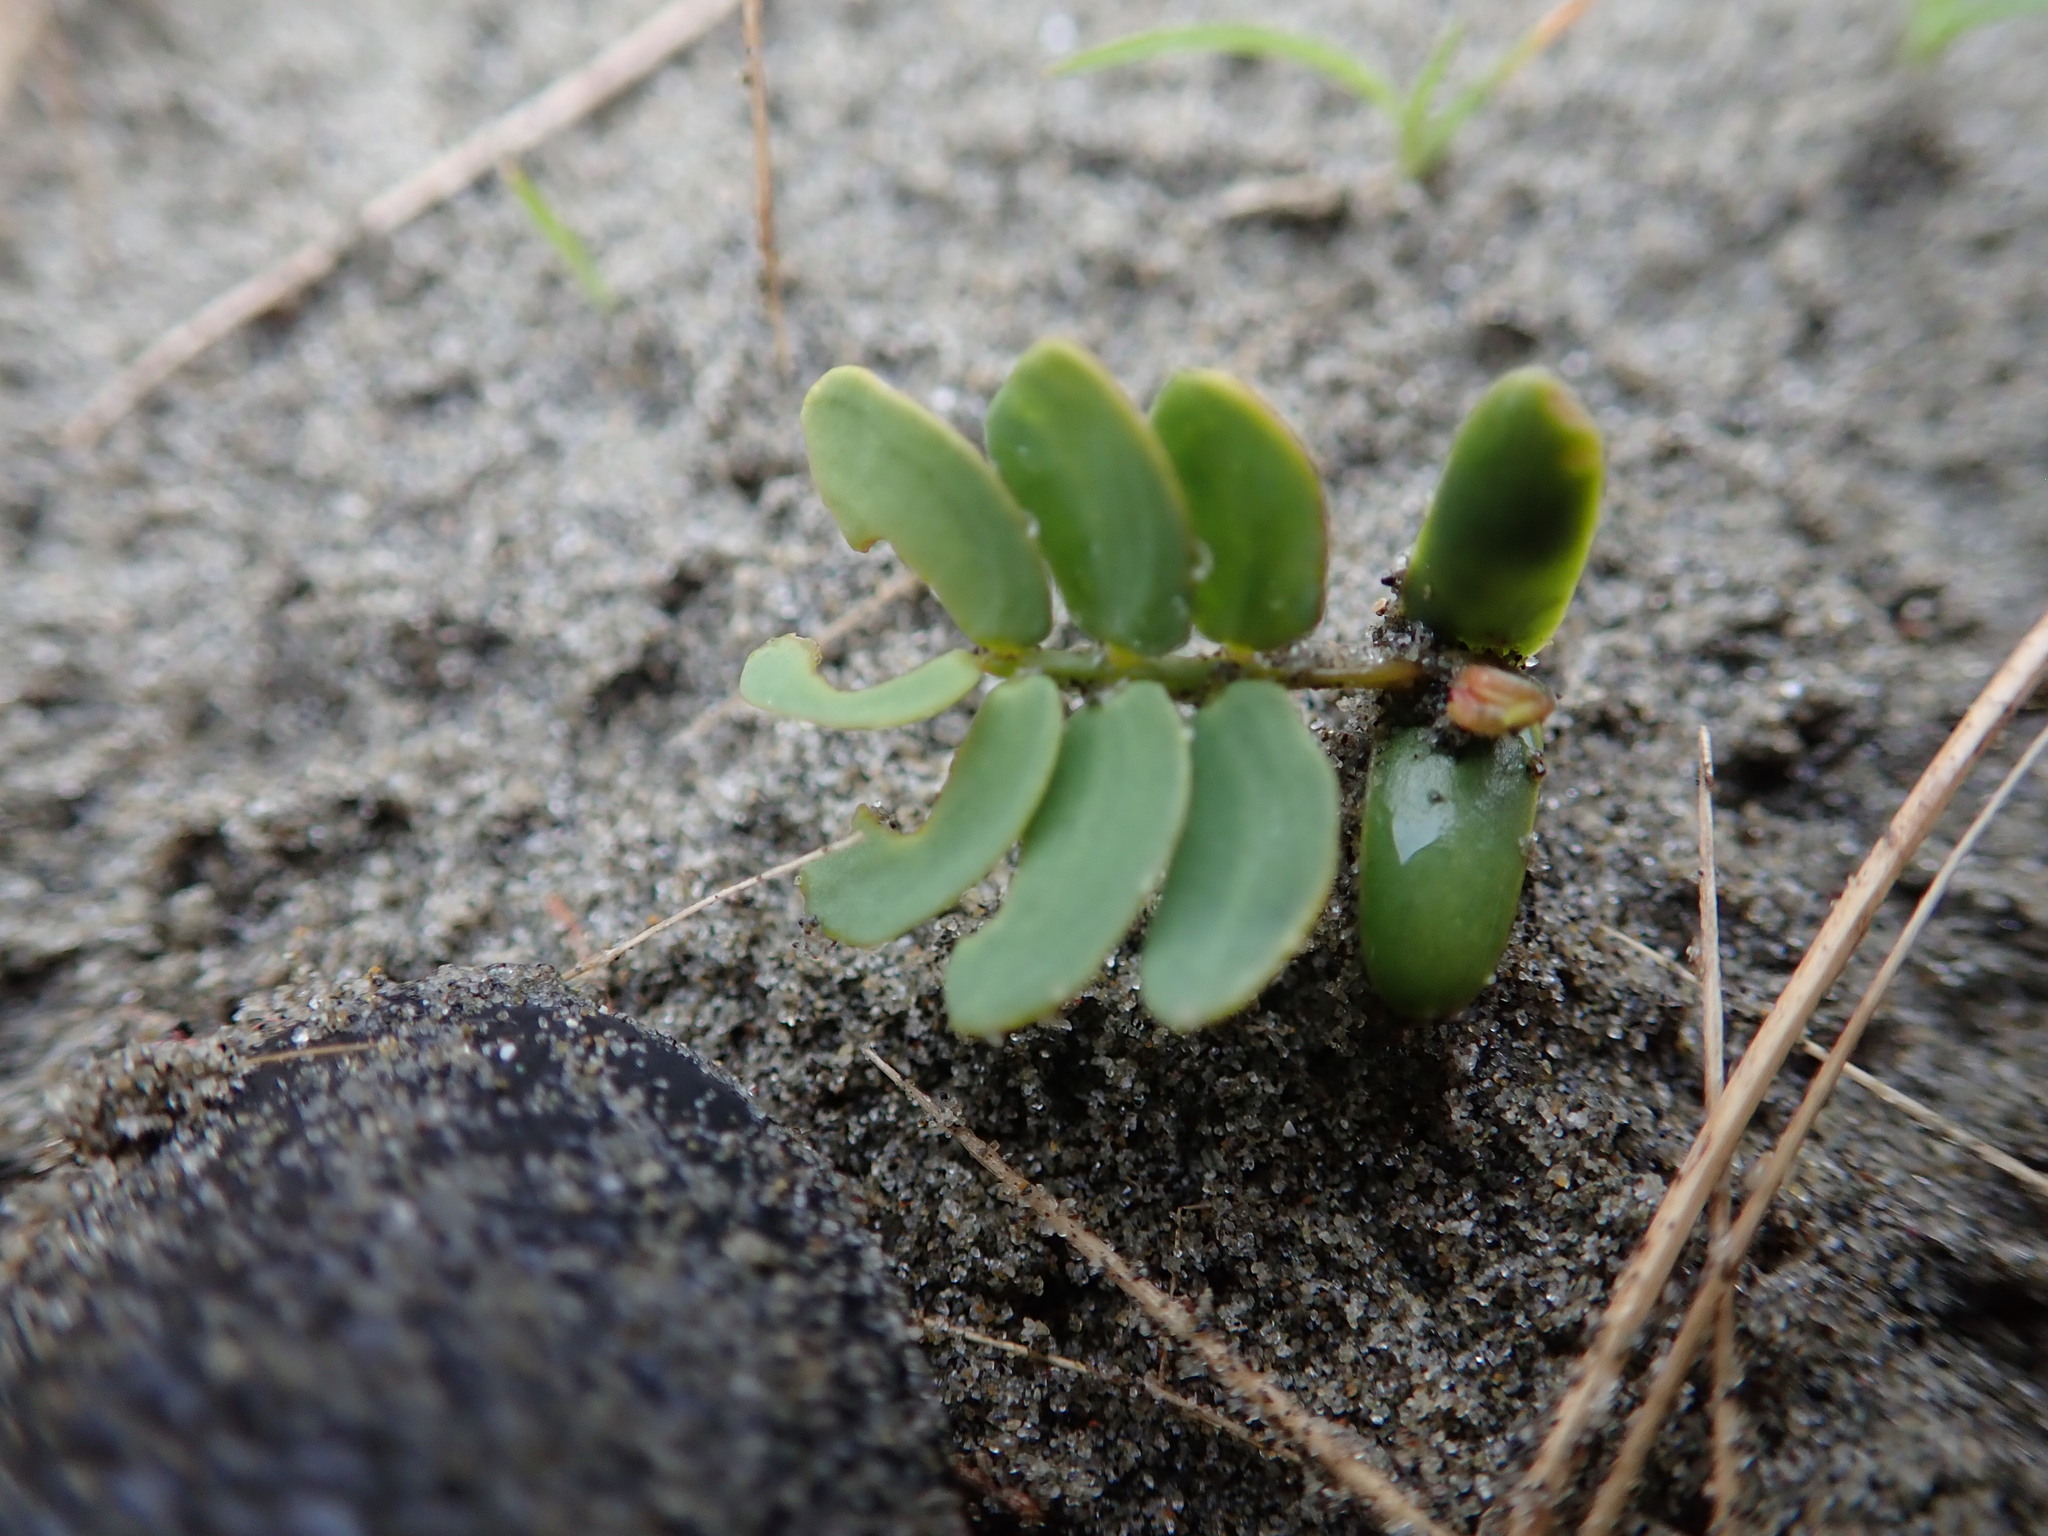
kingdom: Plantae
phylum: Tracheophyta
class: Magnoliopsida
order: Fabales
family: Fabaceae
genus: Acacia
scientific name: Acacia longifolia
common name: Sydney golden wattle
